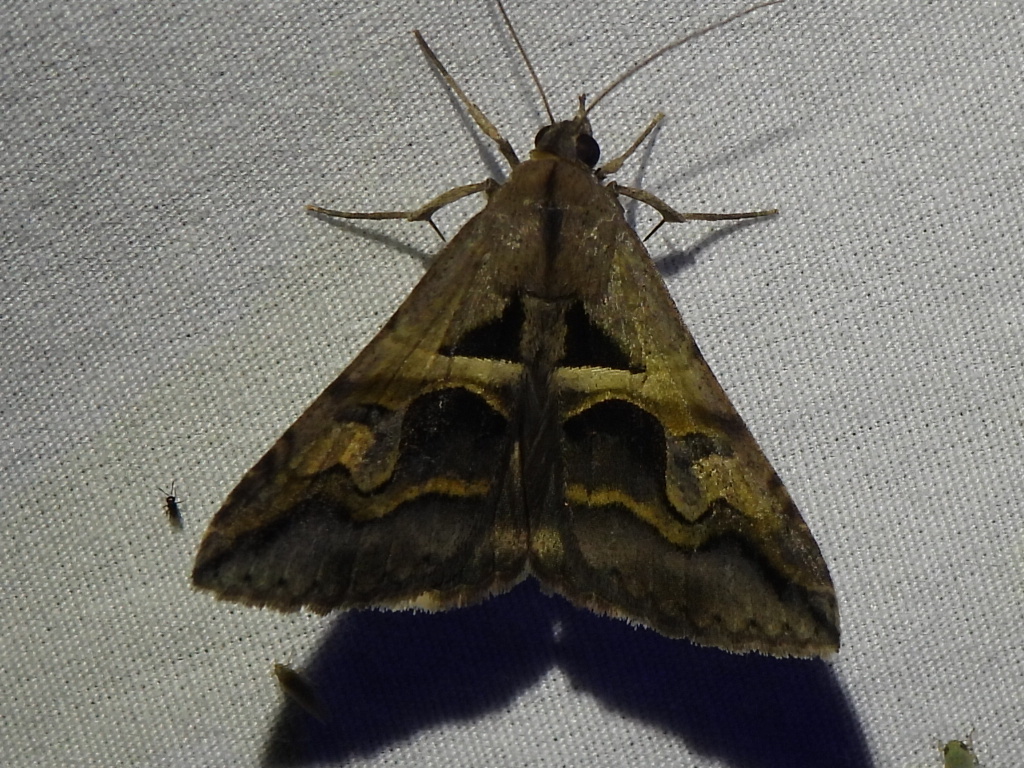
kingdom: Animalia
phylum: Arthropoda
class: Insecta
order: Lepidoptera
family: Erebidae
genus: Melipotis
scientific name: Melipotis cellaris
